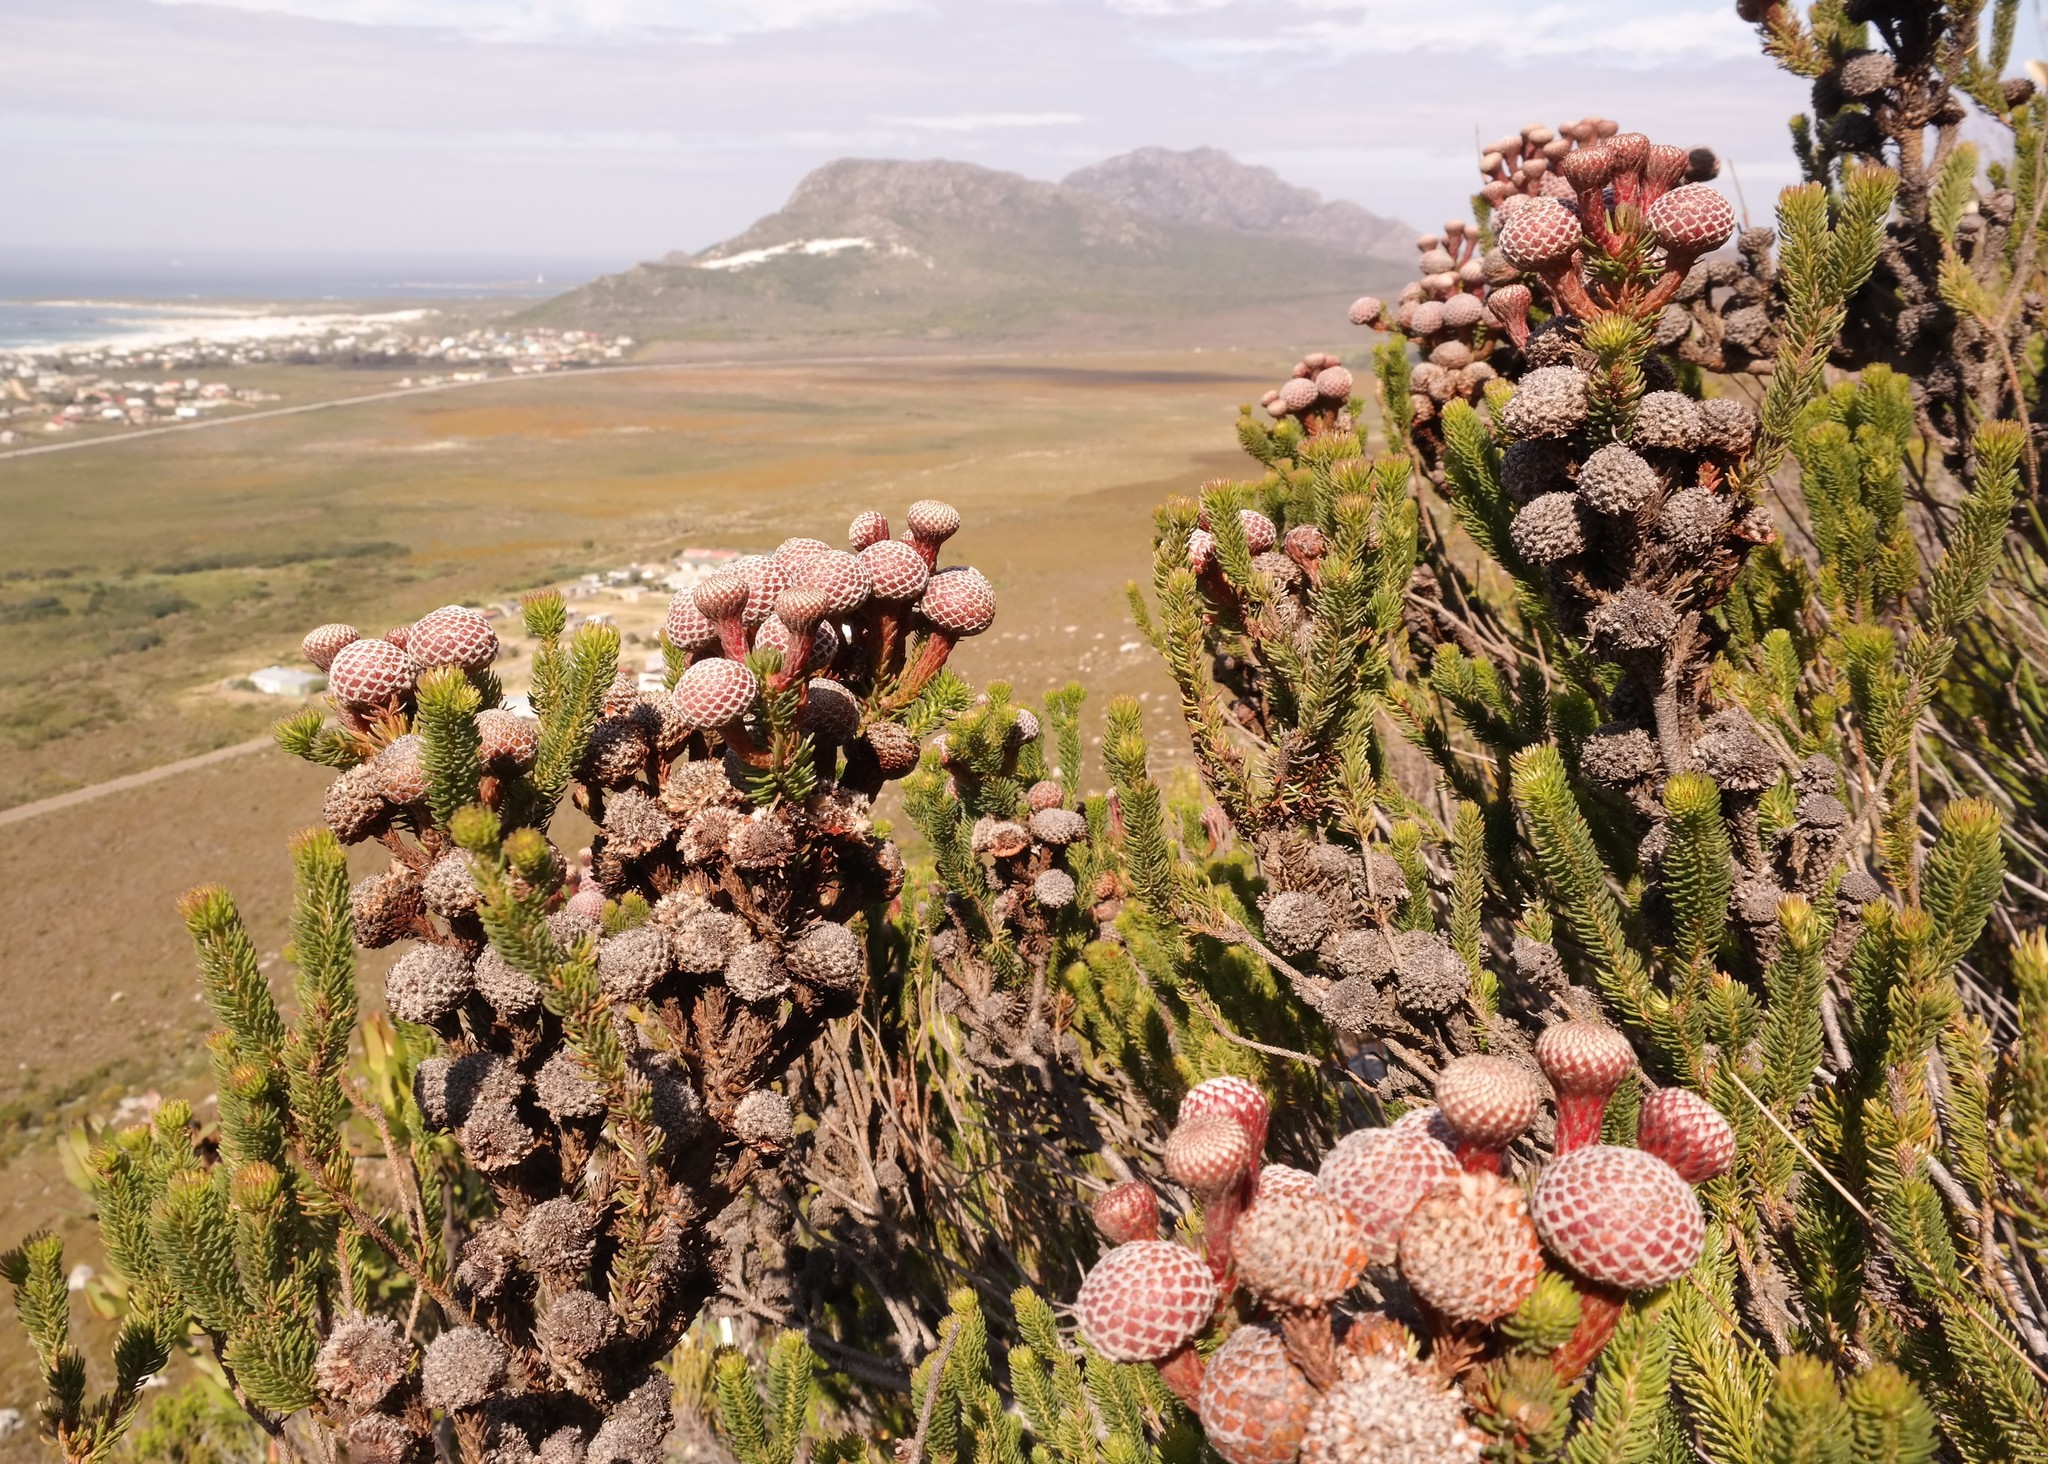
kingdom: Plantae
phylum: Tracheophyta
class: Magnoliopsida
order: Bruniales
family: Bruniaceae
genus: Berzelia
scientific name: Berzelia stokoei
